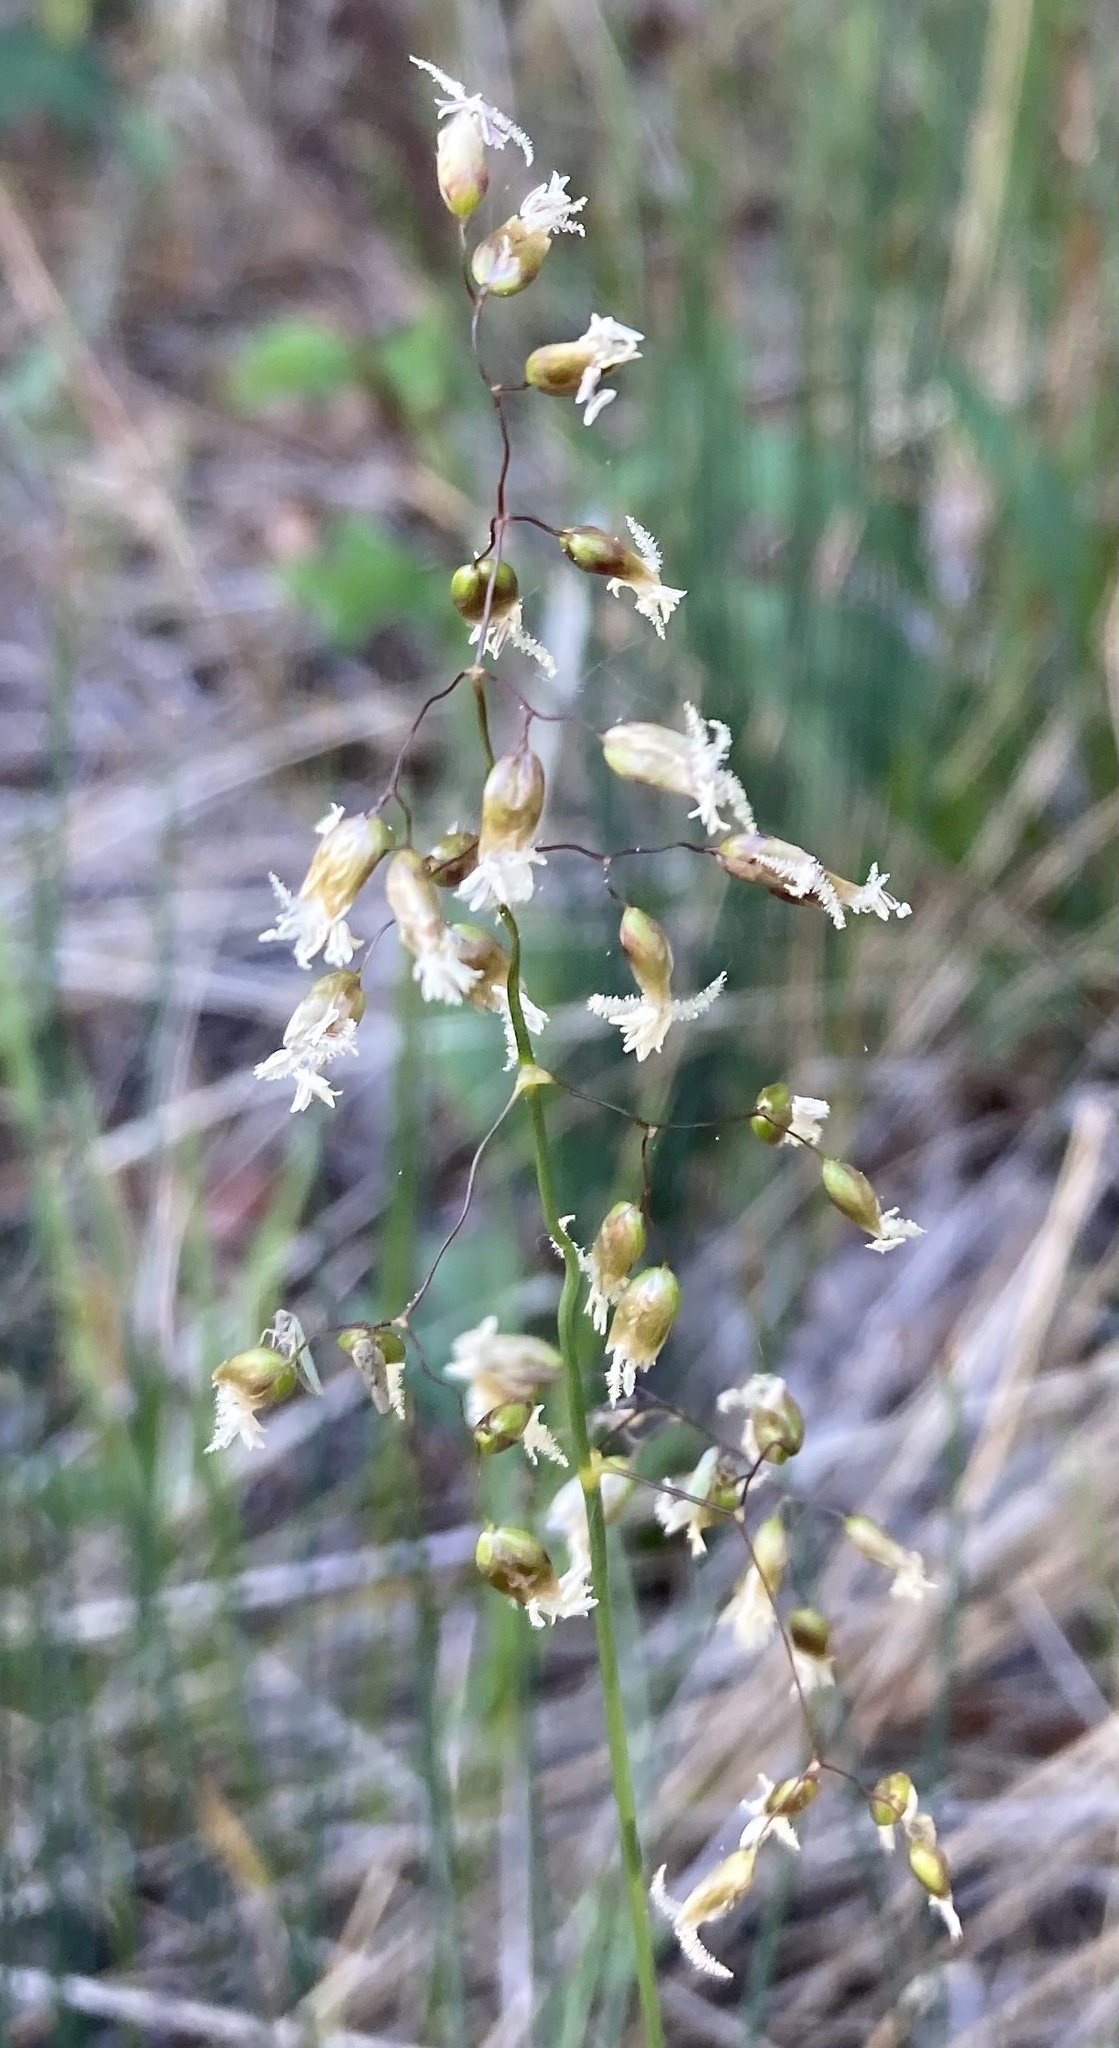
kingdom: Plantae
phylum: Tracheophyta
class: Liliopsida
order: Poales
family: Poaceae
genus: Anthoxanthum
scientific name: Anthoxanthum nitens
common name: Holy grass
